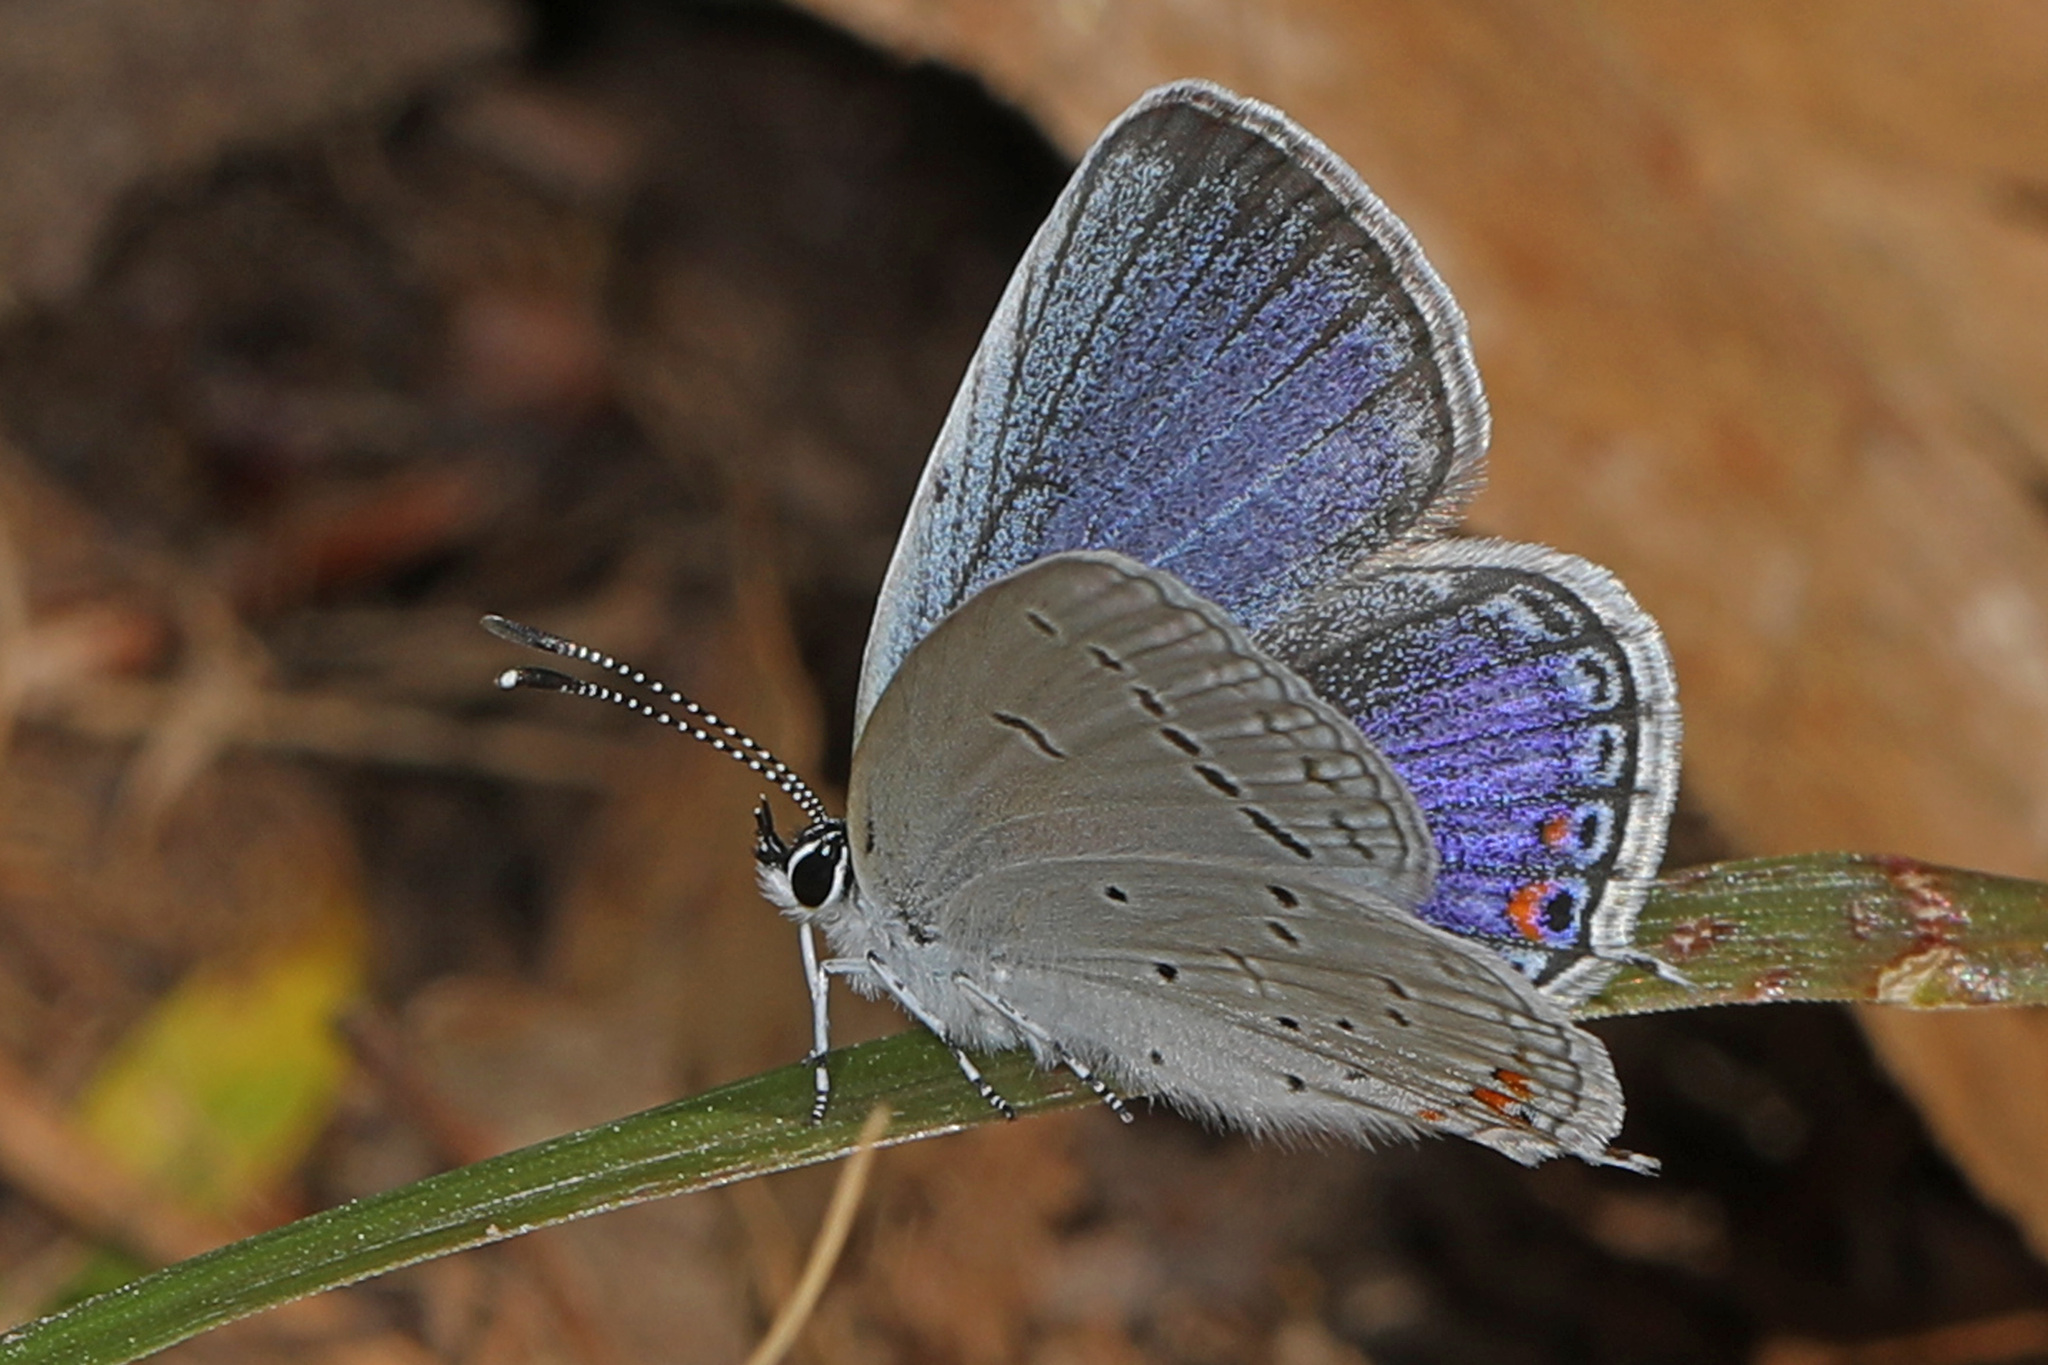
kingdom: Animalia
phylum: Arthropoda
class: Insecta
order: Lepidoptera
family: Lycaenidae
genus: Elkalyce
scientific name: Elkalyce comyntas
